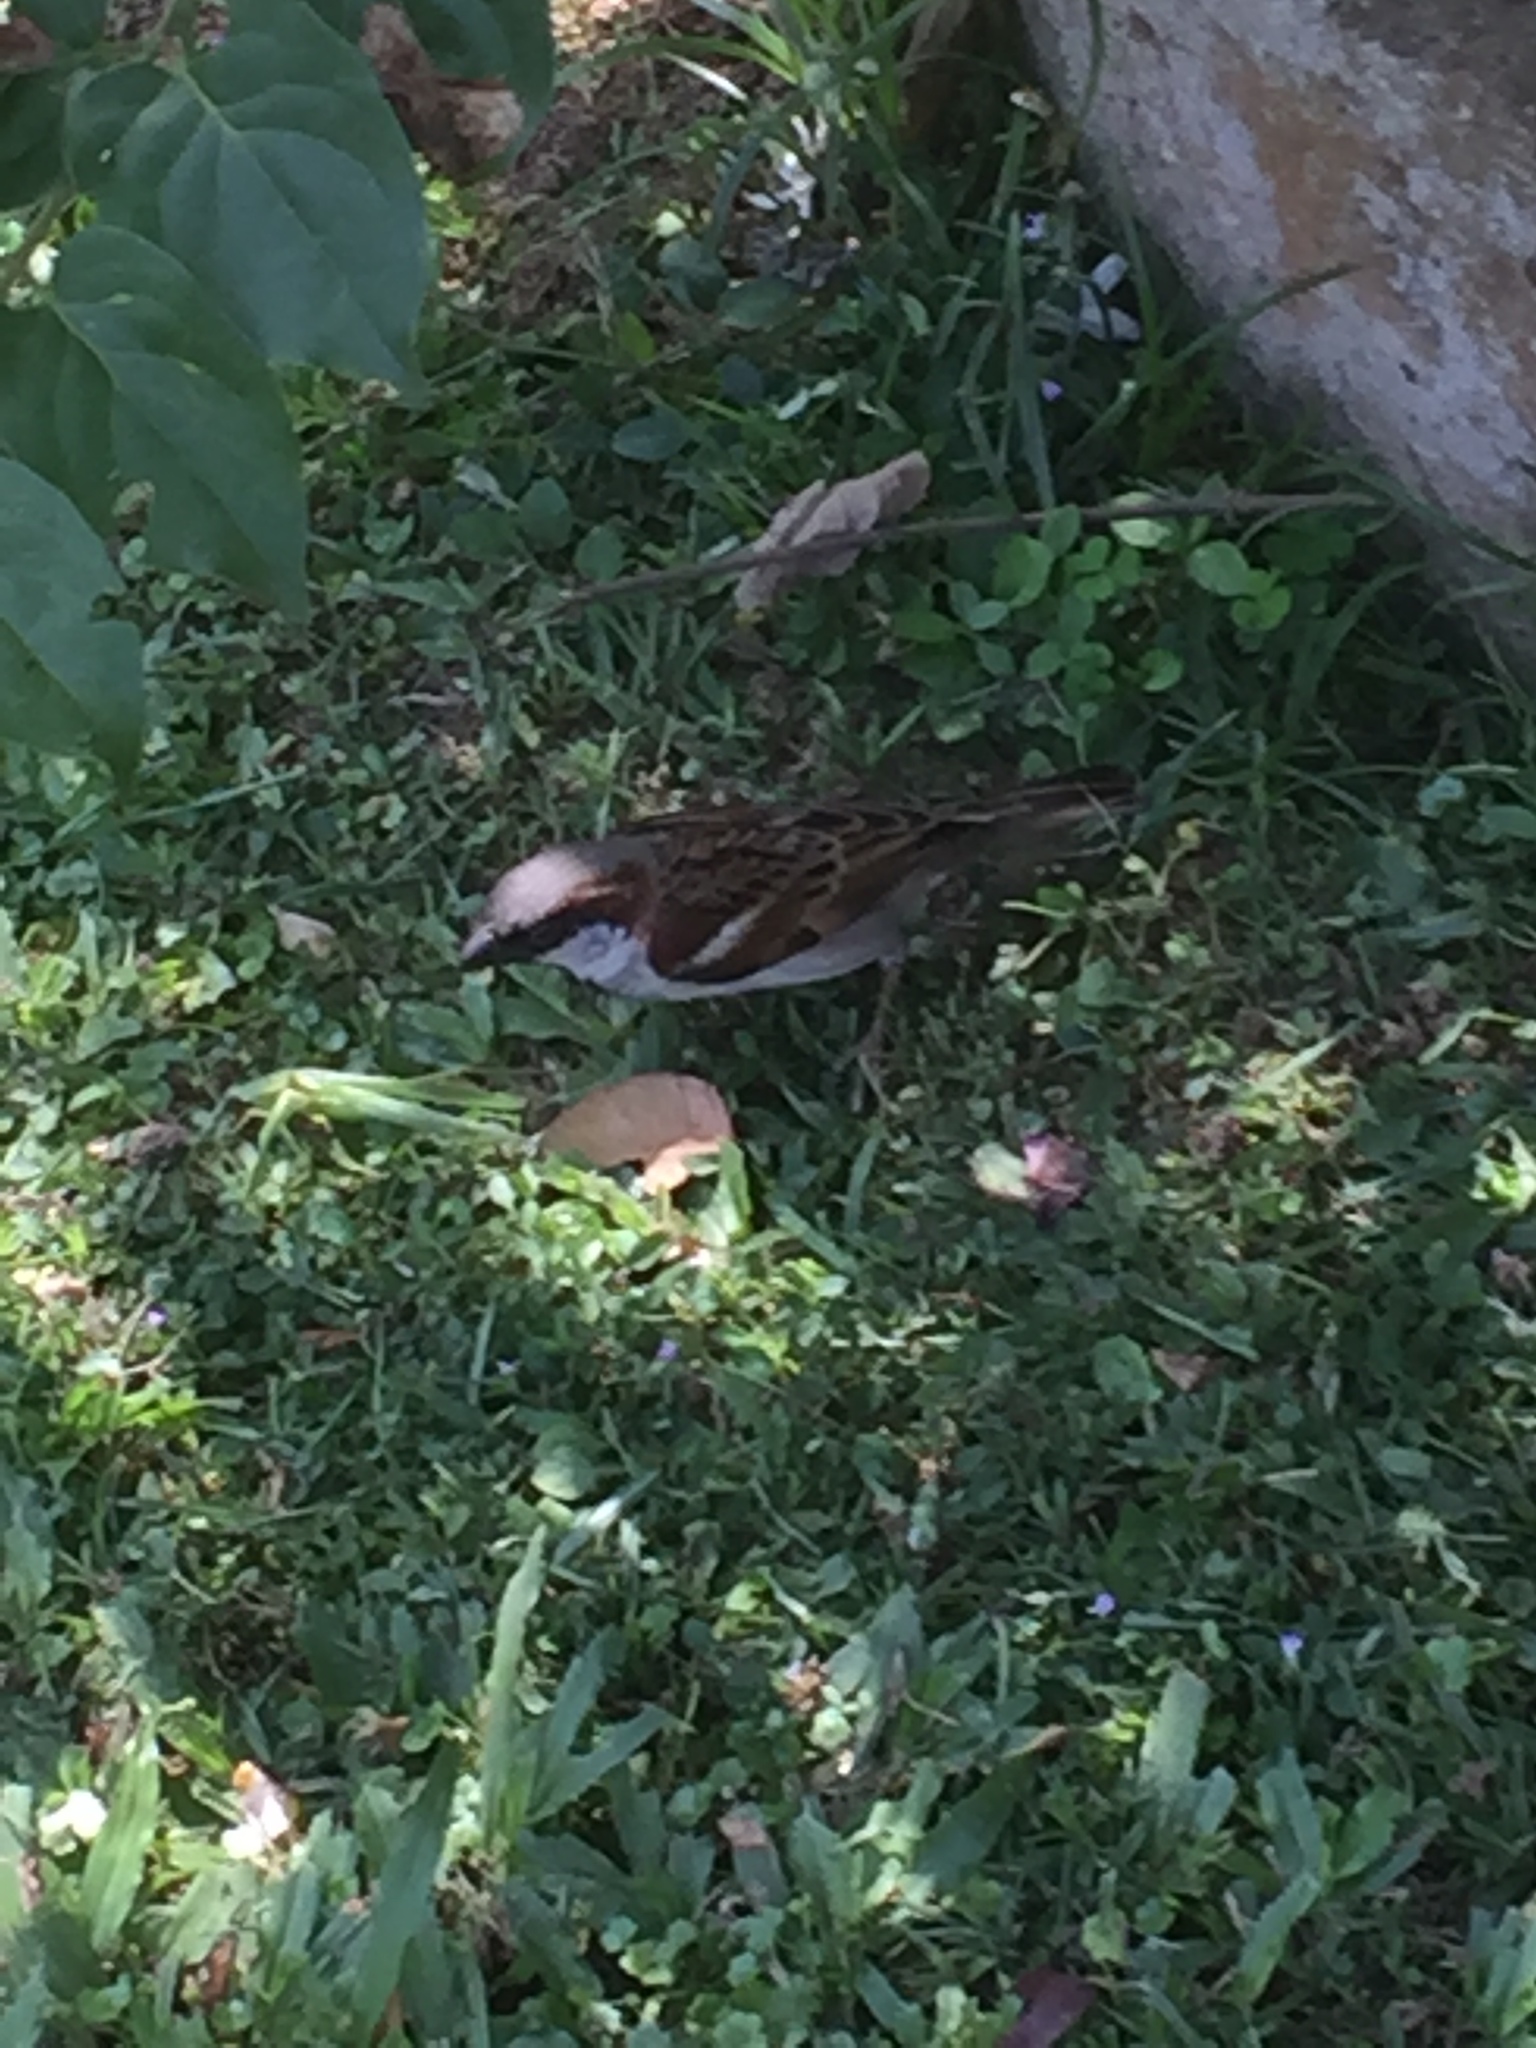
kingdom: Animalia
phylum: Chordata
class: Aves
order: Passeriformes
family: Passeridae
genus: Passer
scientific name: Passer domesticus
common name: House sparrow
